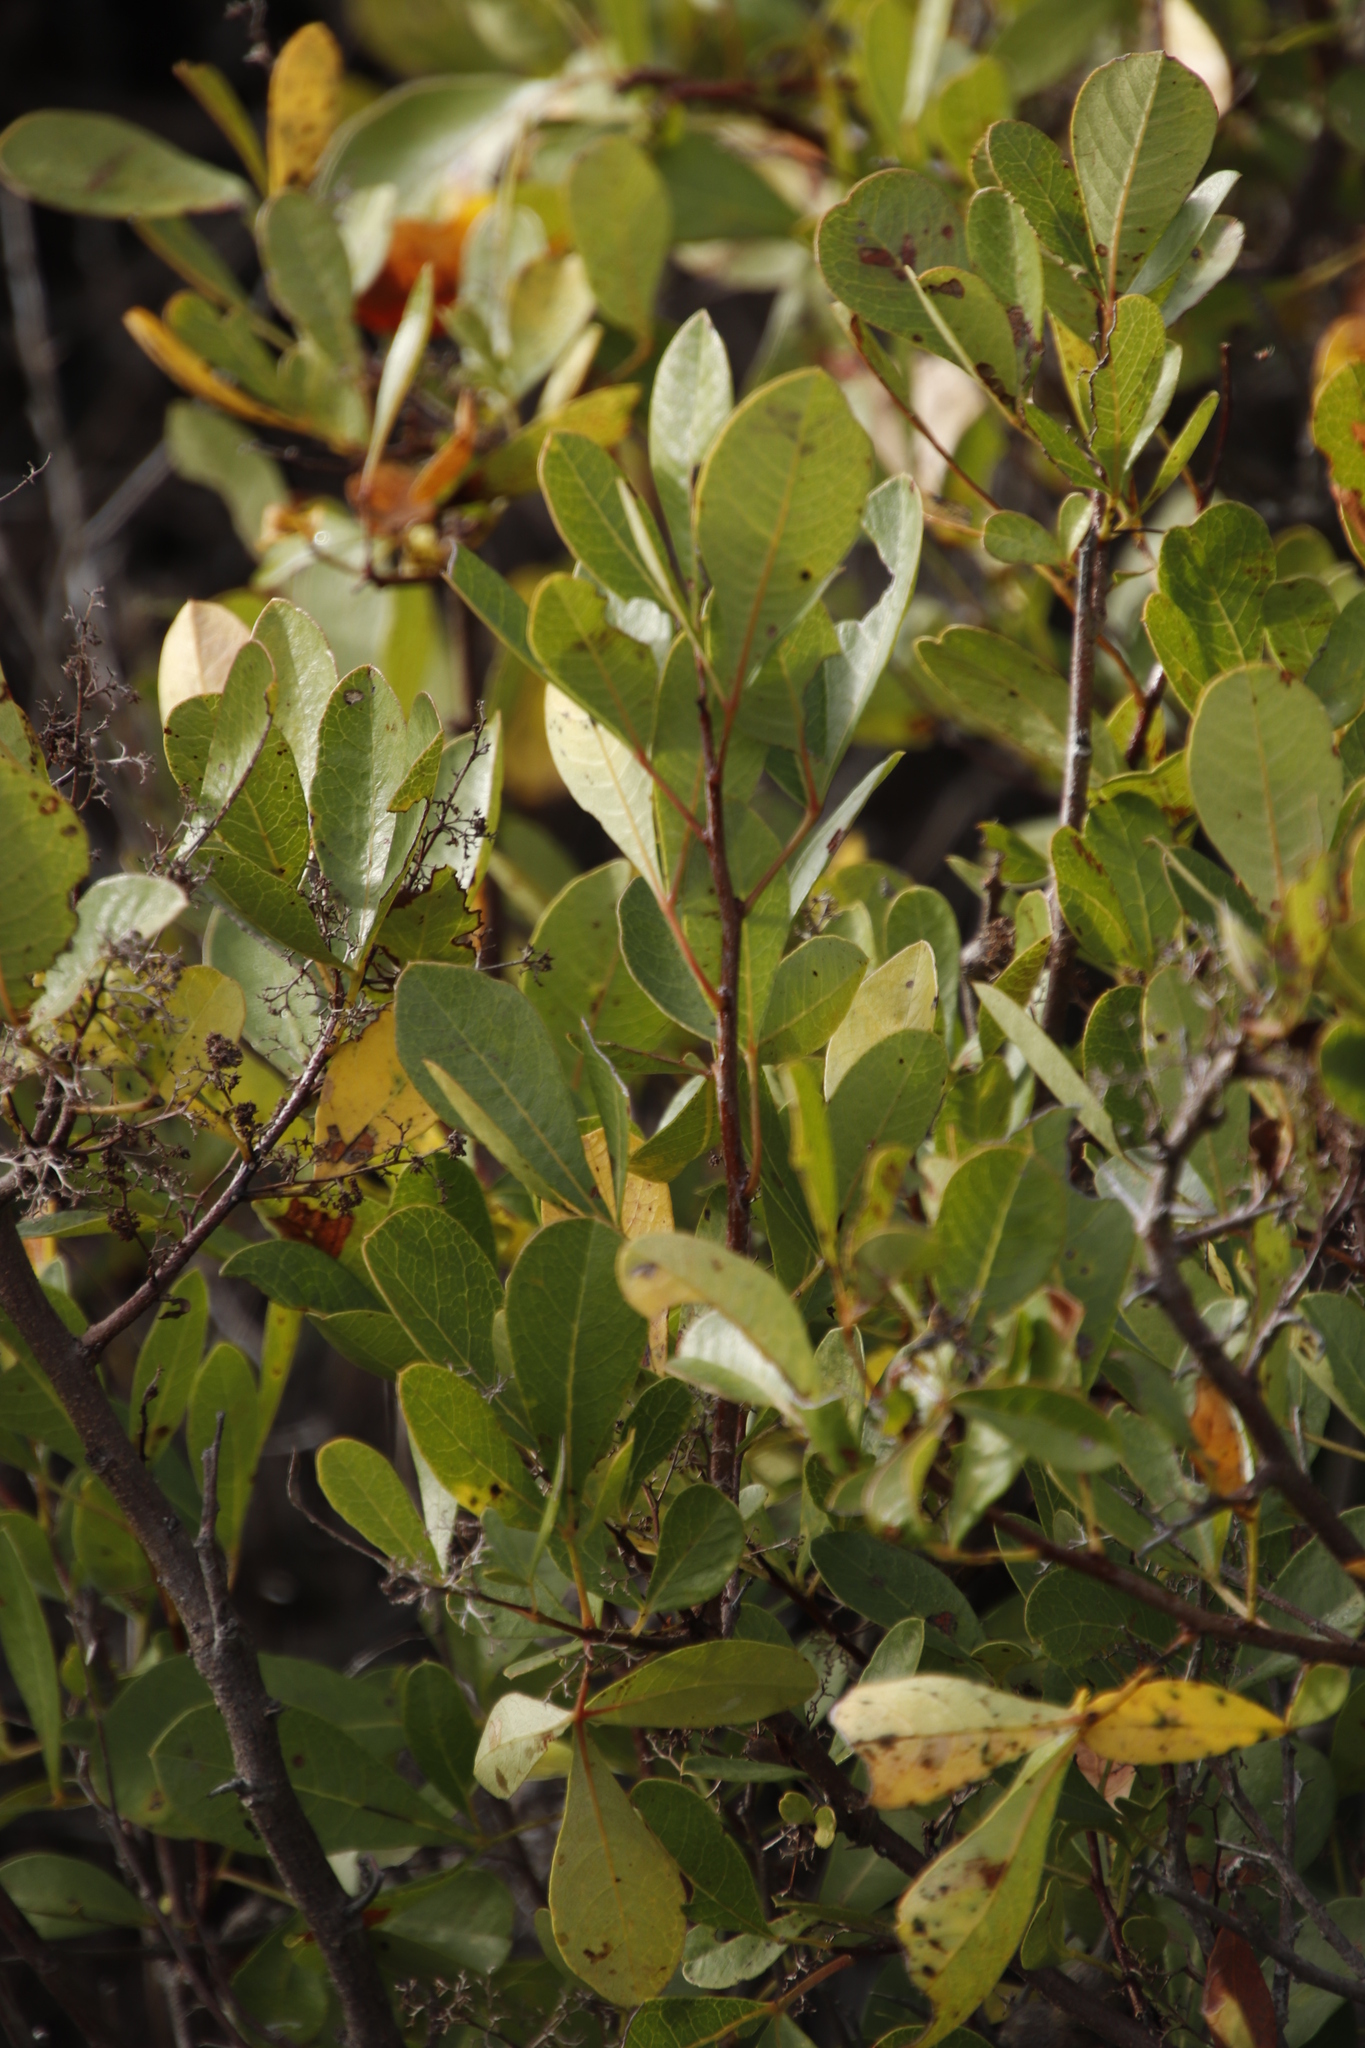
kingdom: Plantae
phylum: Tracheophyta
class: Magnoliopsida
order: Sapindales
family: Anacardiaceae
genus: Searsia
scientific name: Searsia laevigata
